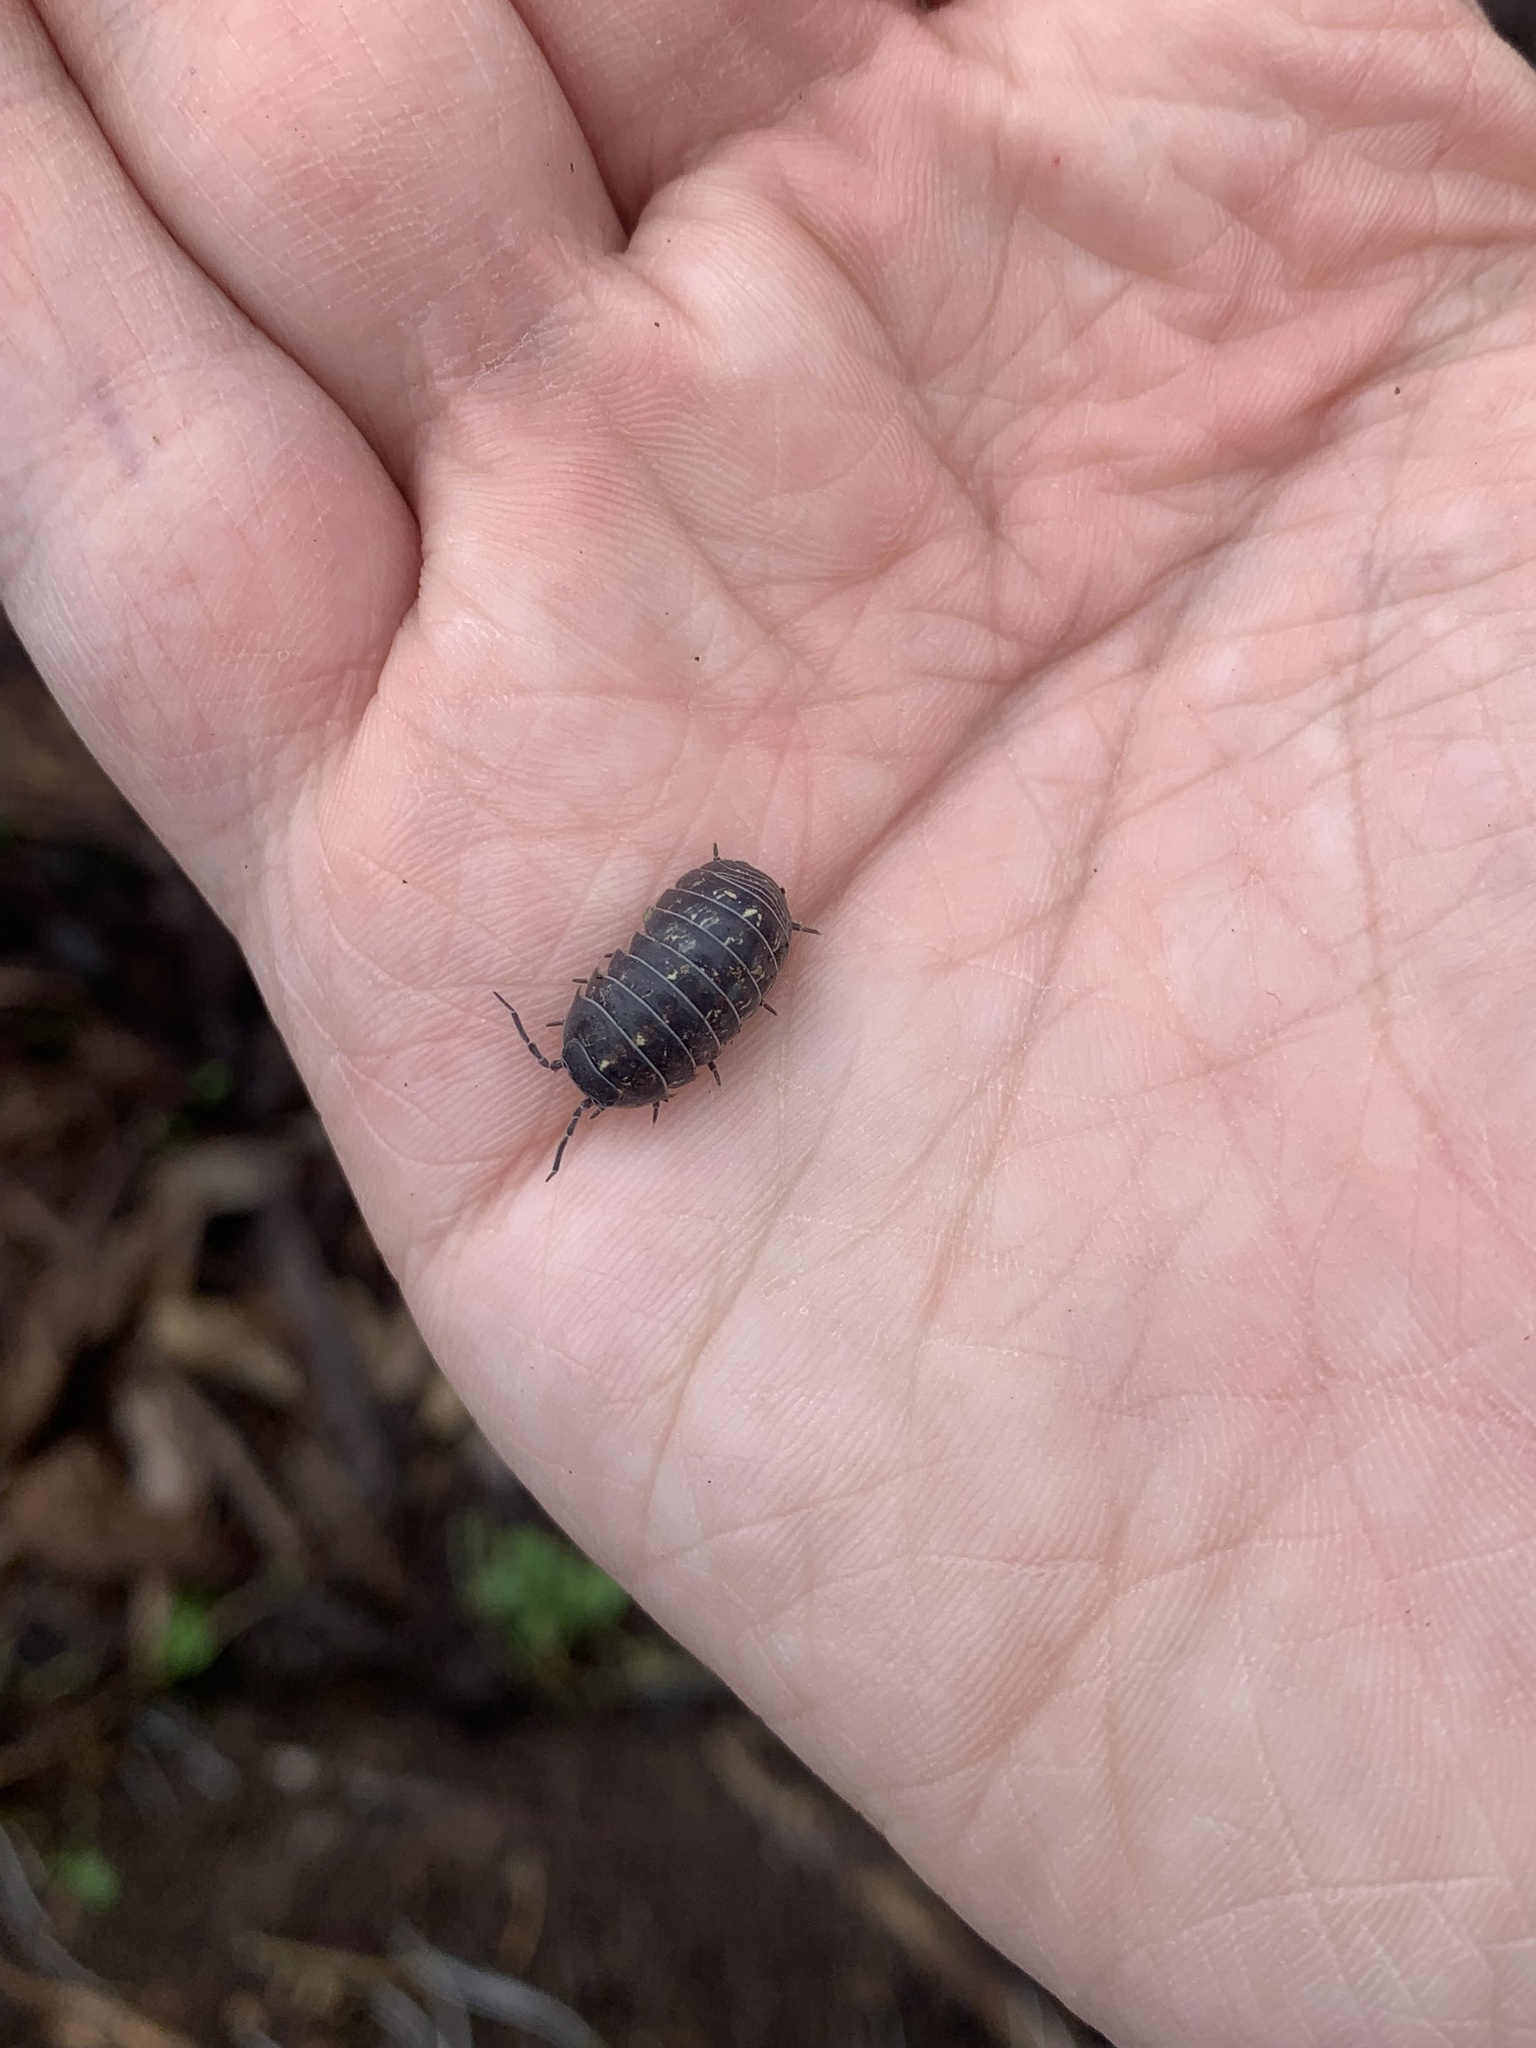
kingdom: Animalia
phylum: Arthropoda
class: Malacostraca
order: Isopoda
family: Armadillidiidae
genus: Armadillidium
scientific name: Armadillidium vulgare
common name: Common pill woodlouse
